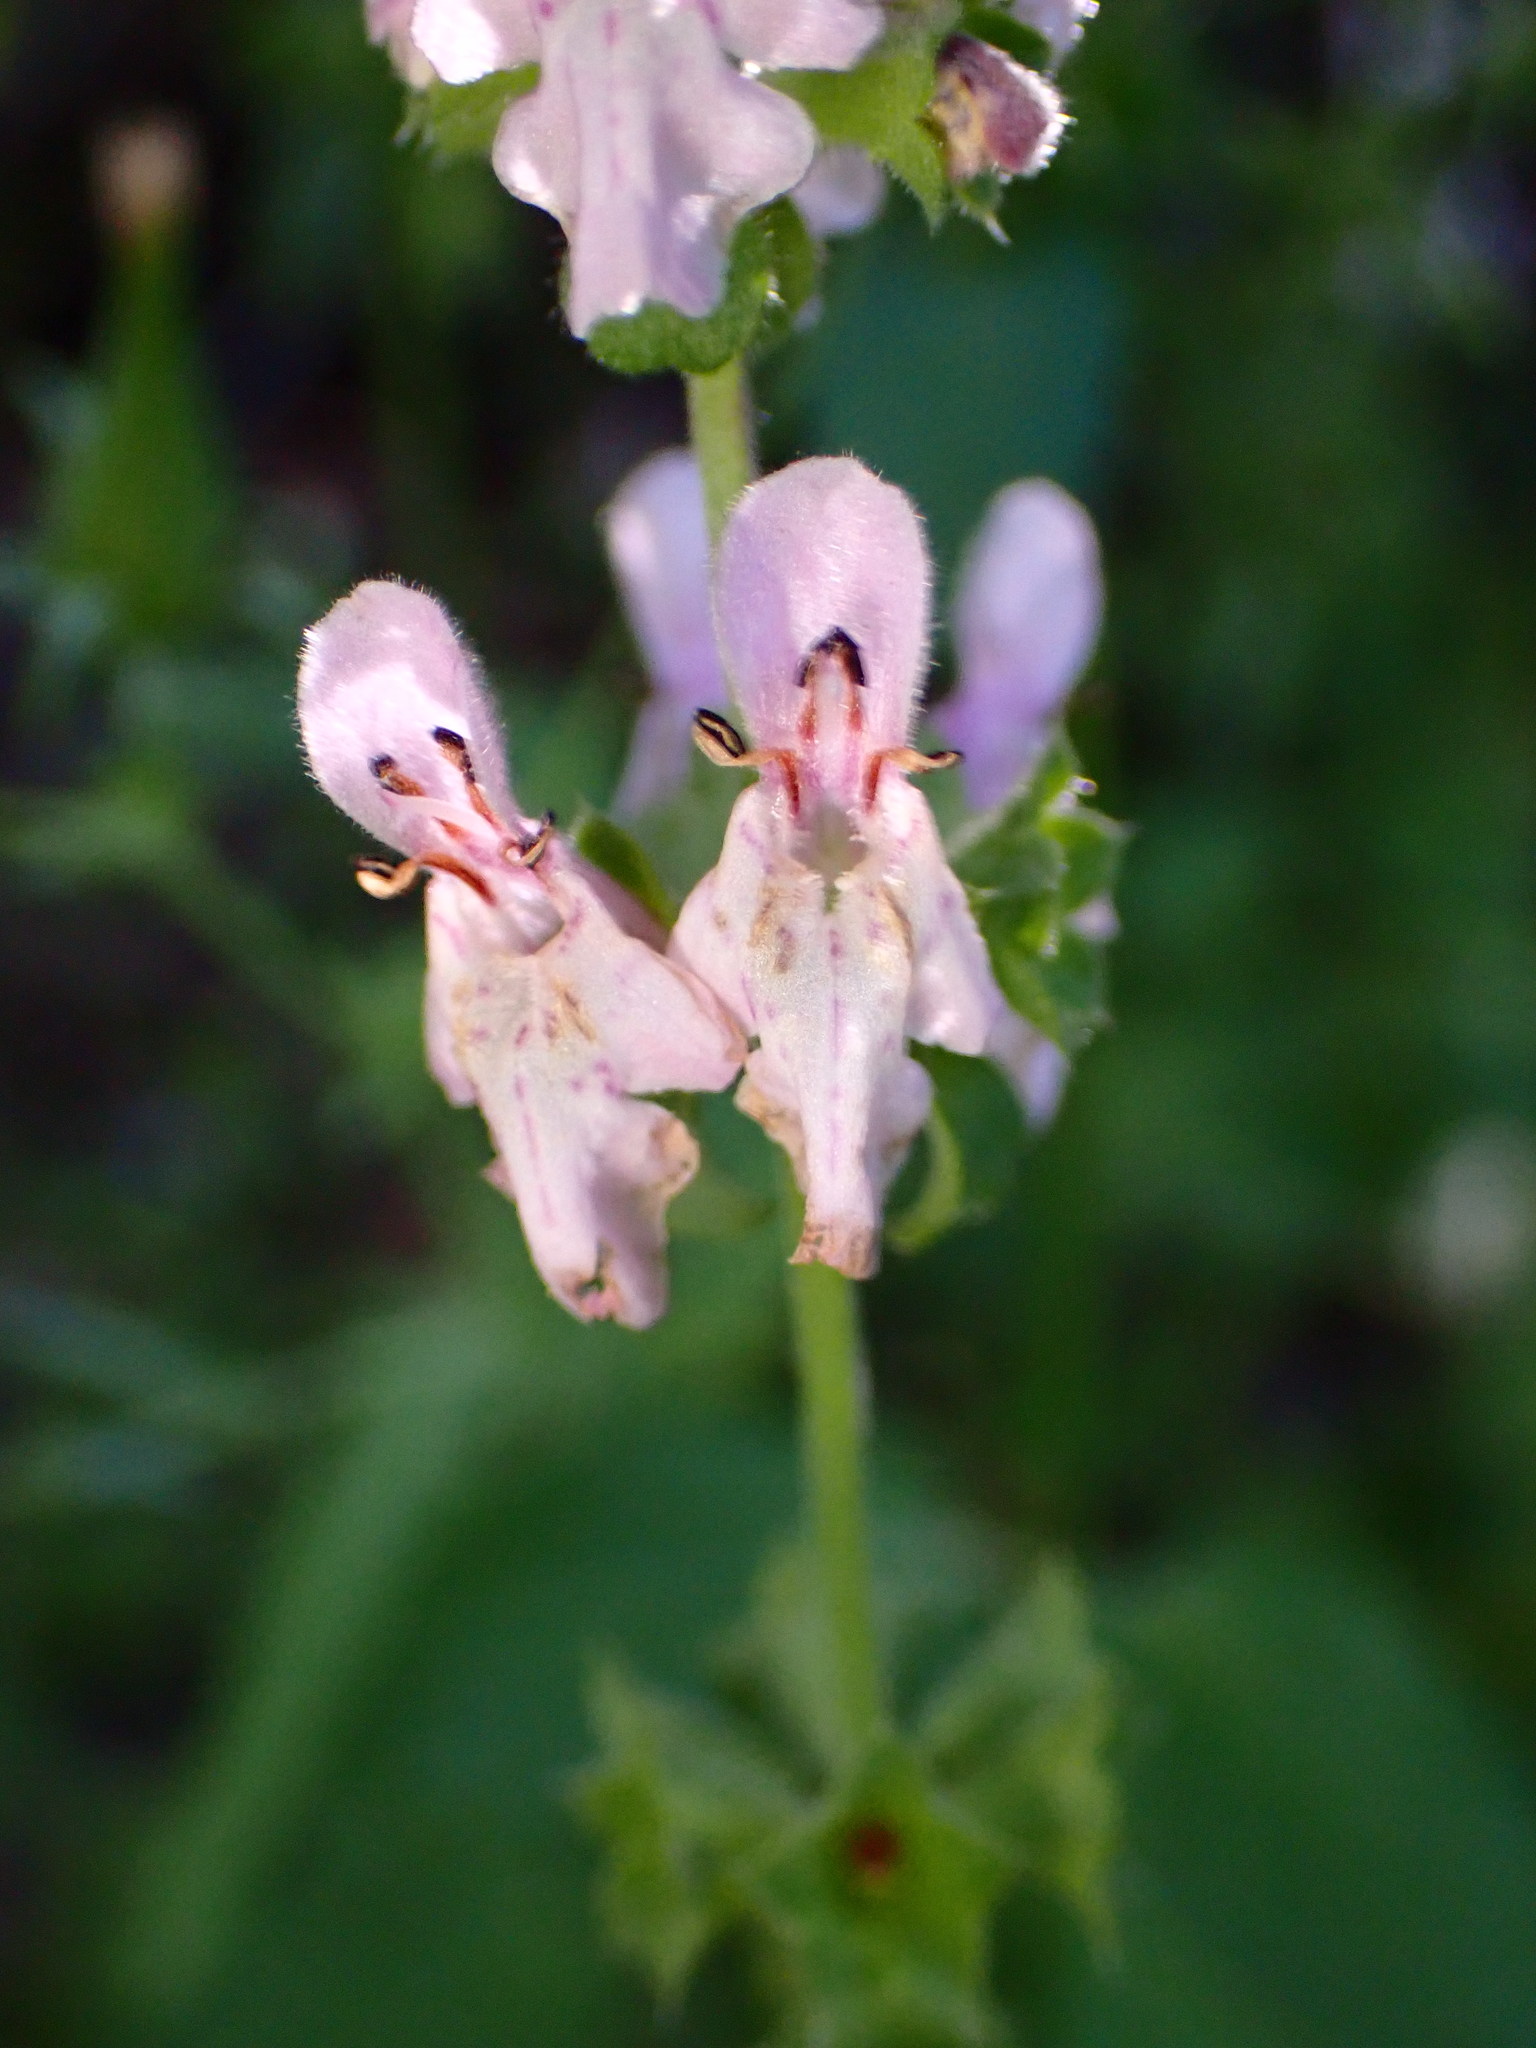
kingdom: Plantae
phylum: Tracheophyta
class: Magnoliopsida
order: Lamiales
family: Lamiaceae
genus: Stachys
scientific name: Stachys rigida
